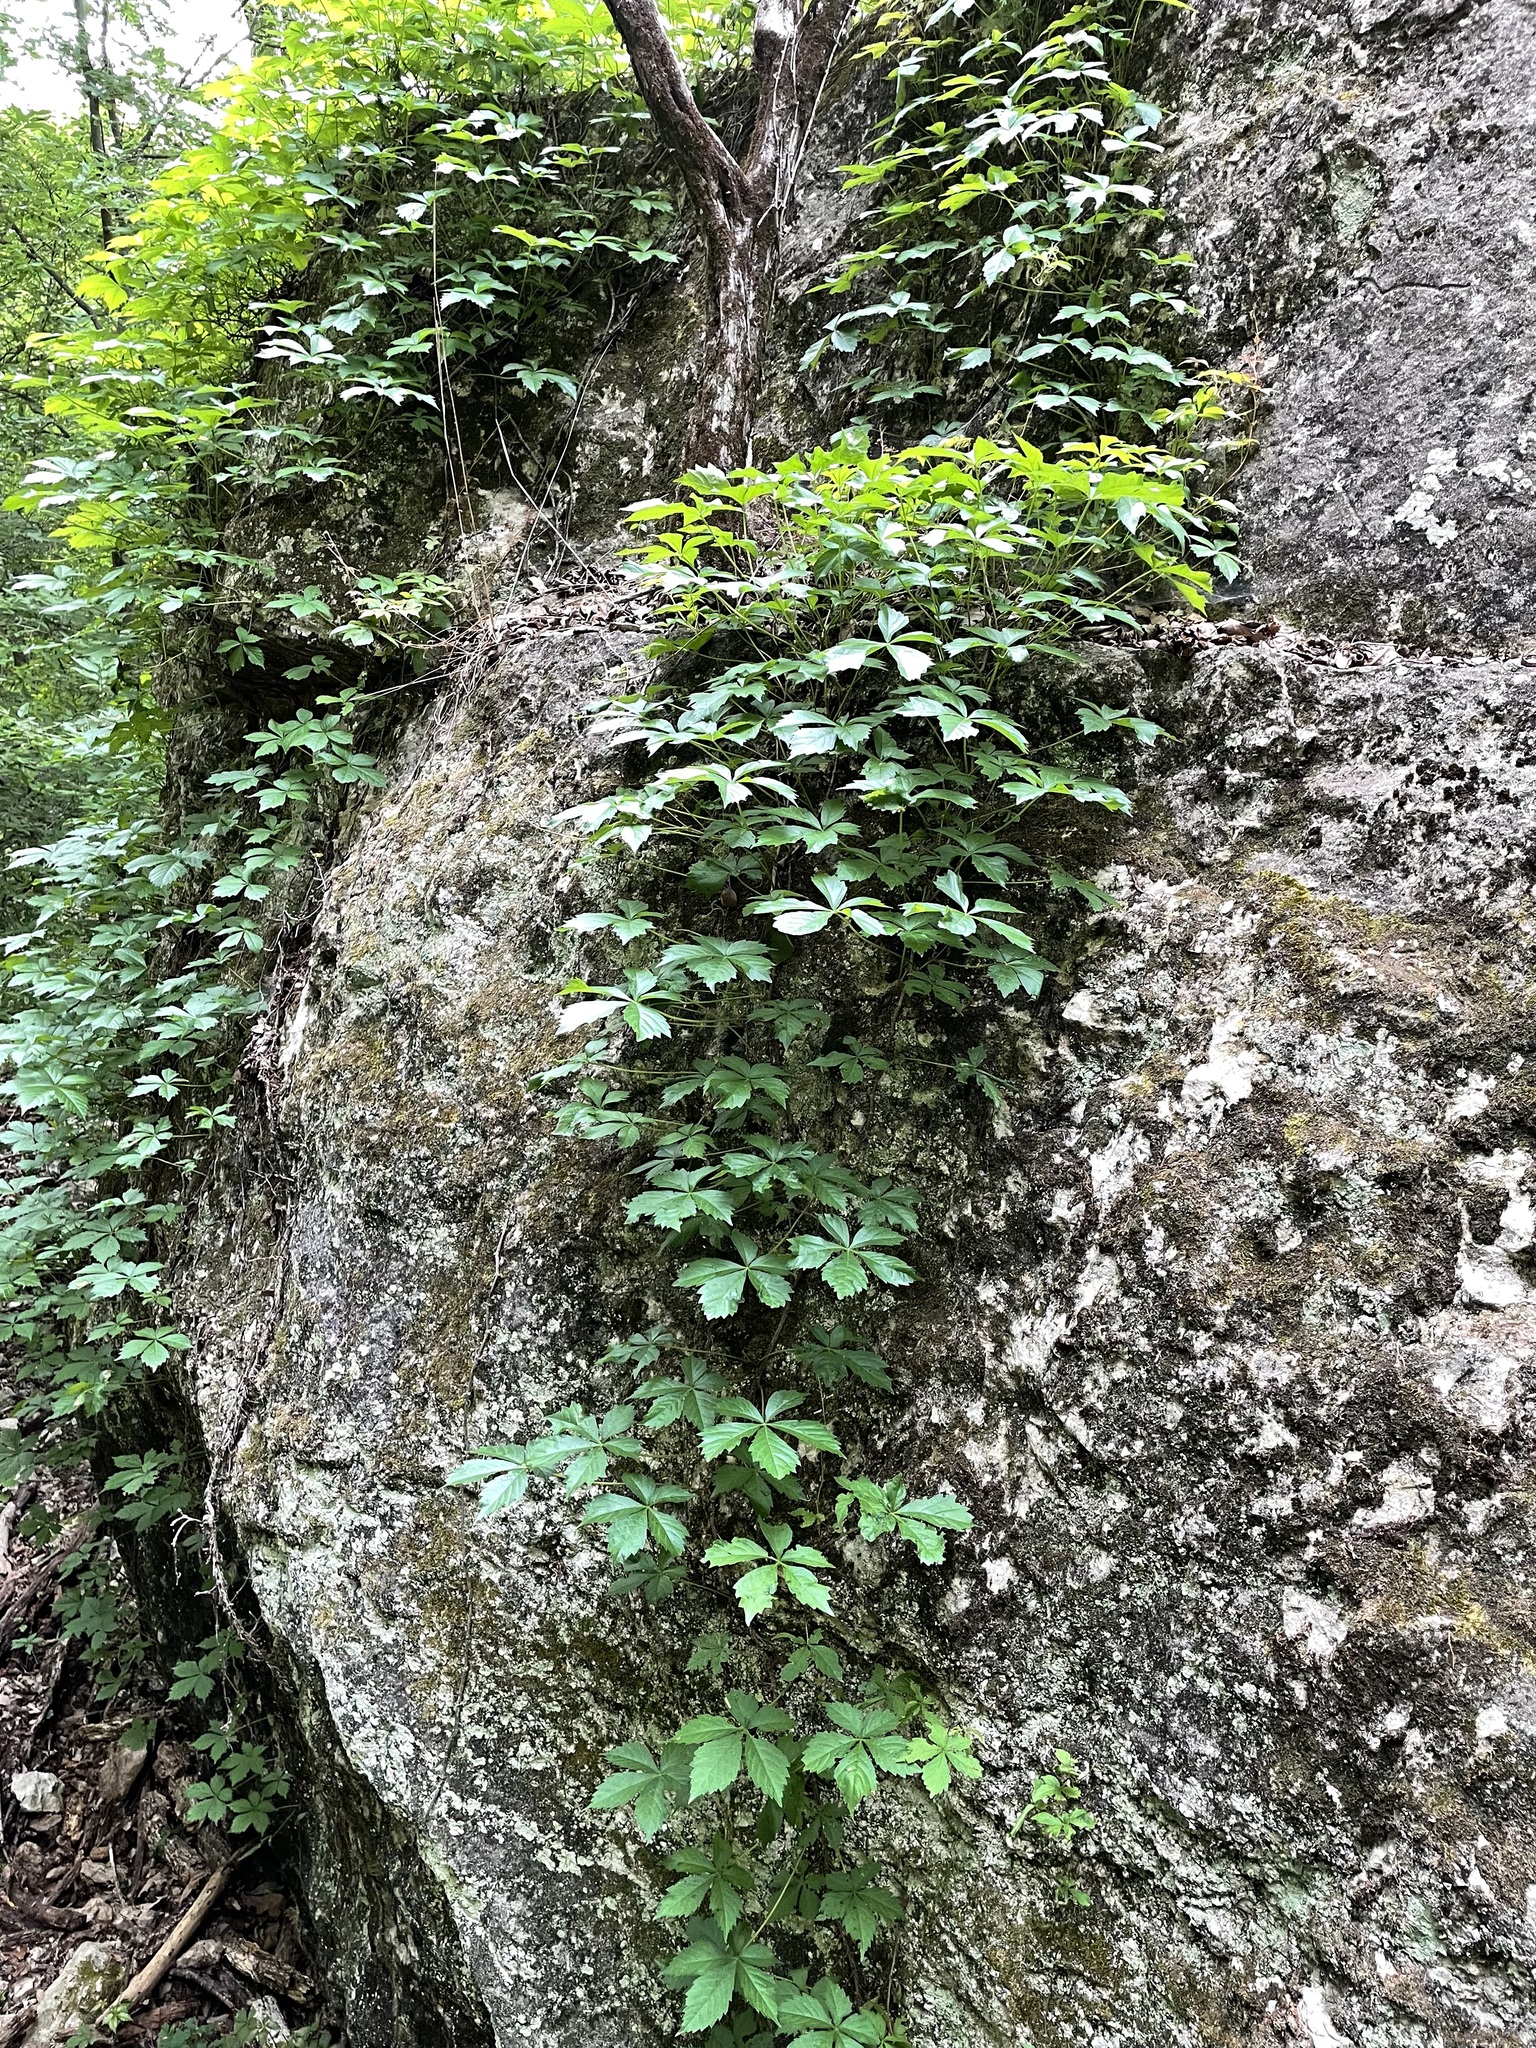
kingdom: Plantae
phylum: Tracheophyta
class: Magnoliopsida
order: Vitales
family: Vitaceae
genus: Parthenocissus
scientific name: Parthenocissus quinquefolia
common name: Virginia-creeper
